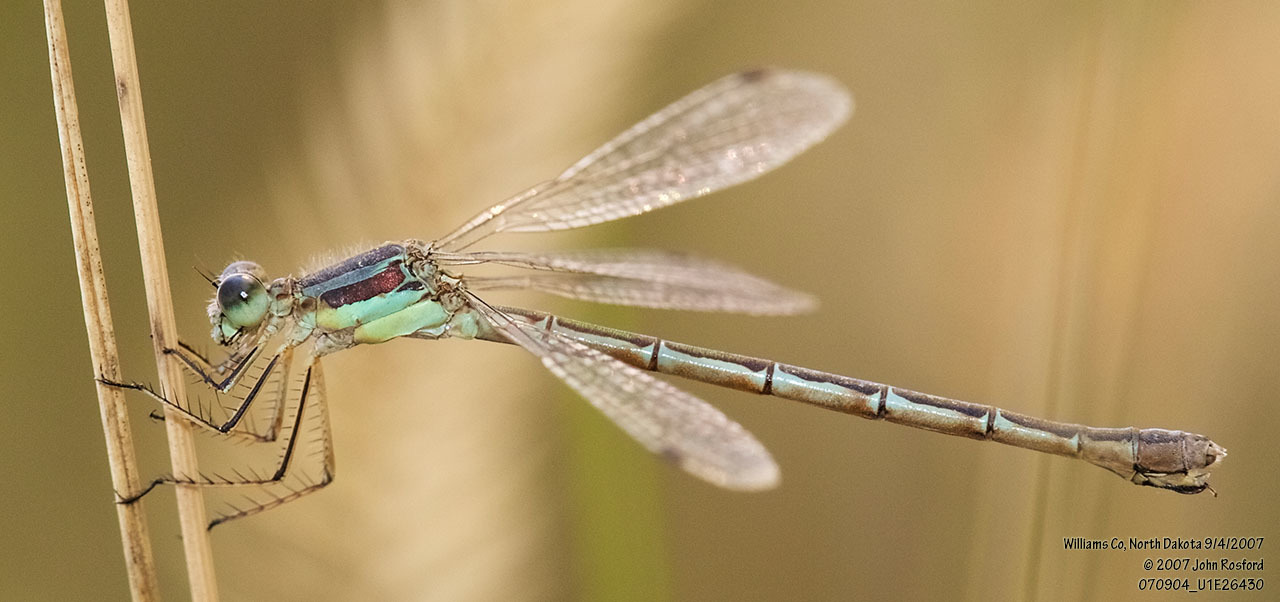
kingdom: Animalia
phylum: Arthropoda
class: Insecta
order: Odonata
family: Lestidae
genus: Lestes
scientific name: Lestes unguiculatus
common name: Lyre-tipped spreadwing
